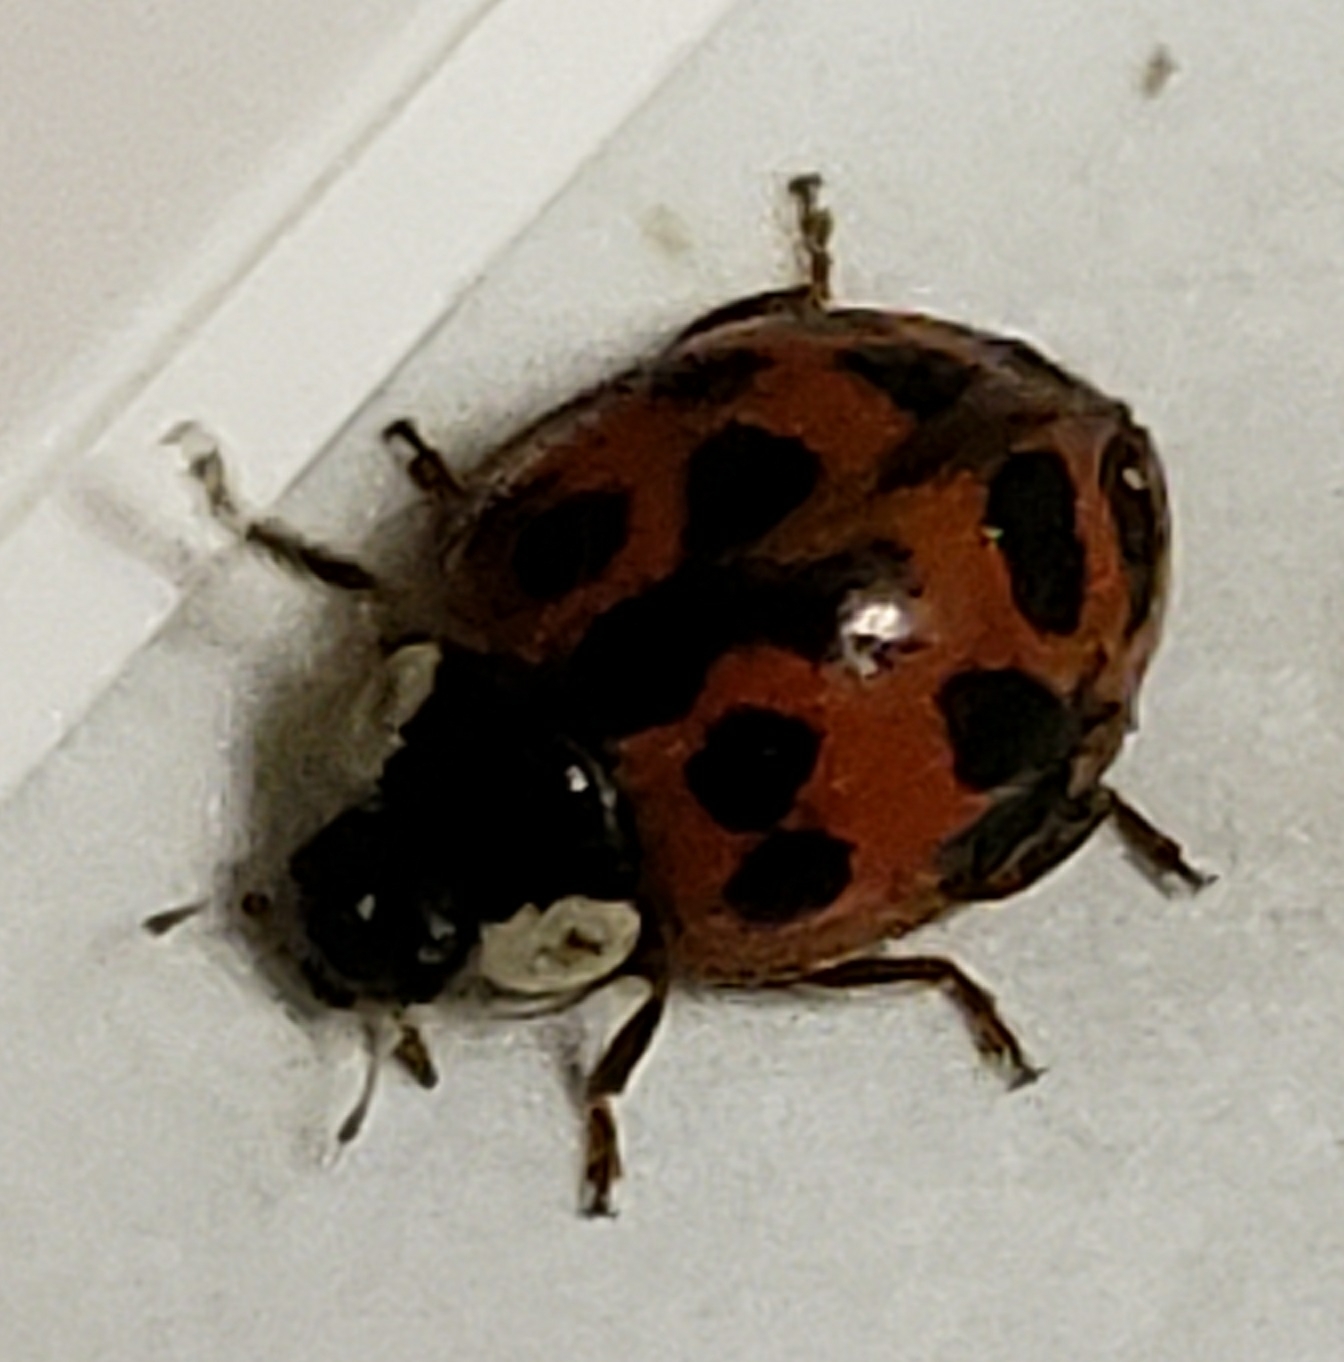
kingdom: Animalia
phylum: Arthropoda
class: Insecta
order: Coleoptera
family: Coccinellidae
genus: Harmonia
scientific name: Harmonia axyridis
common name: Harlequin ladybird
